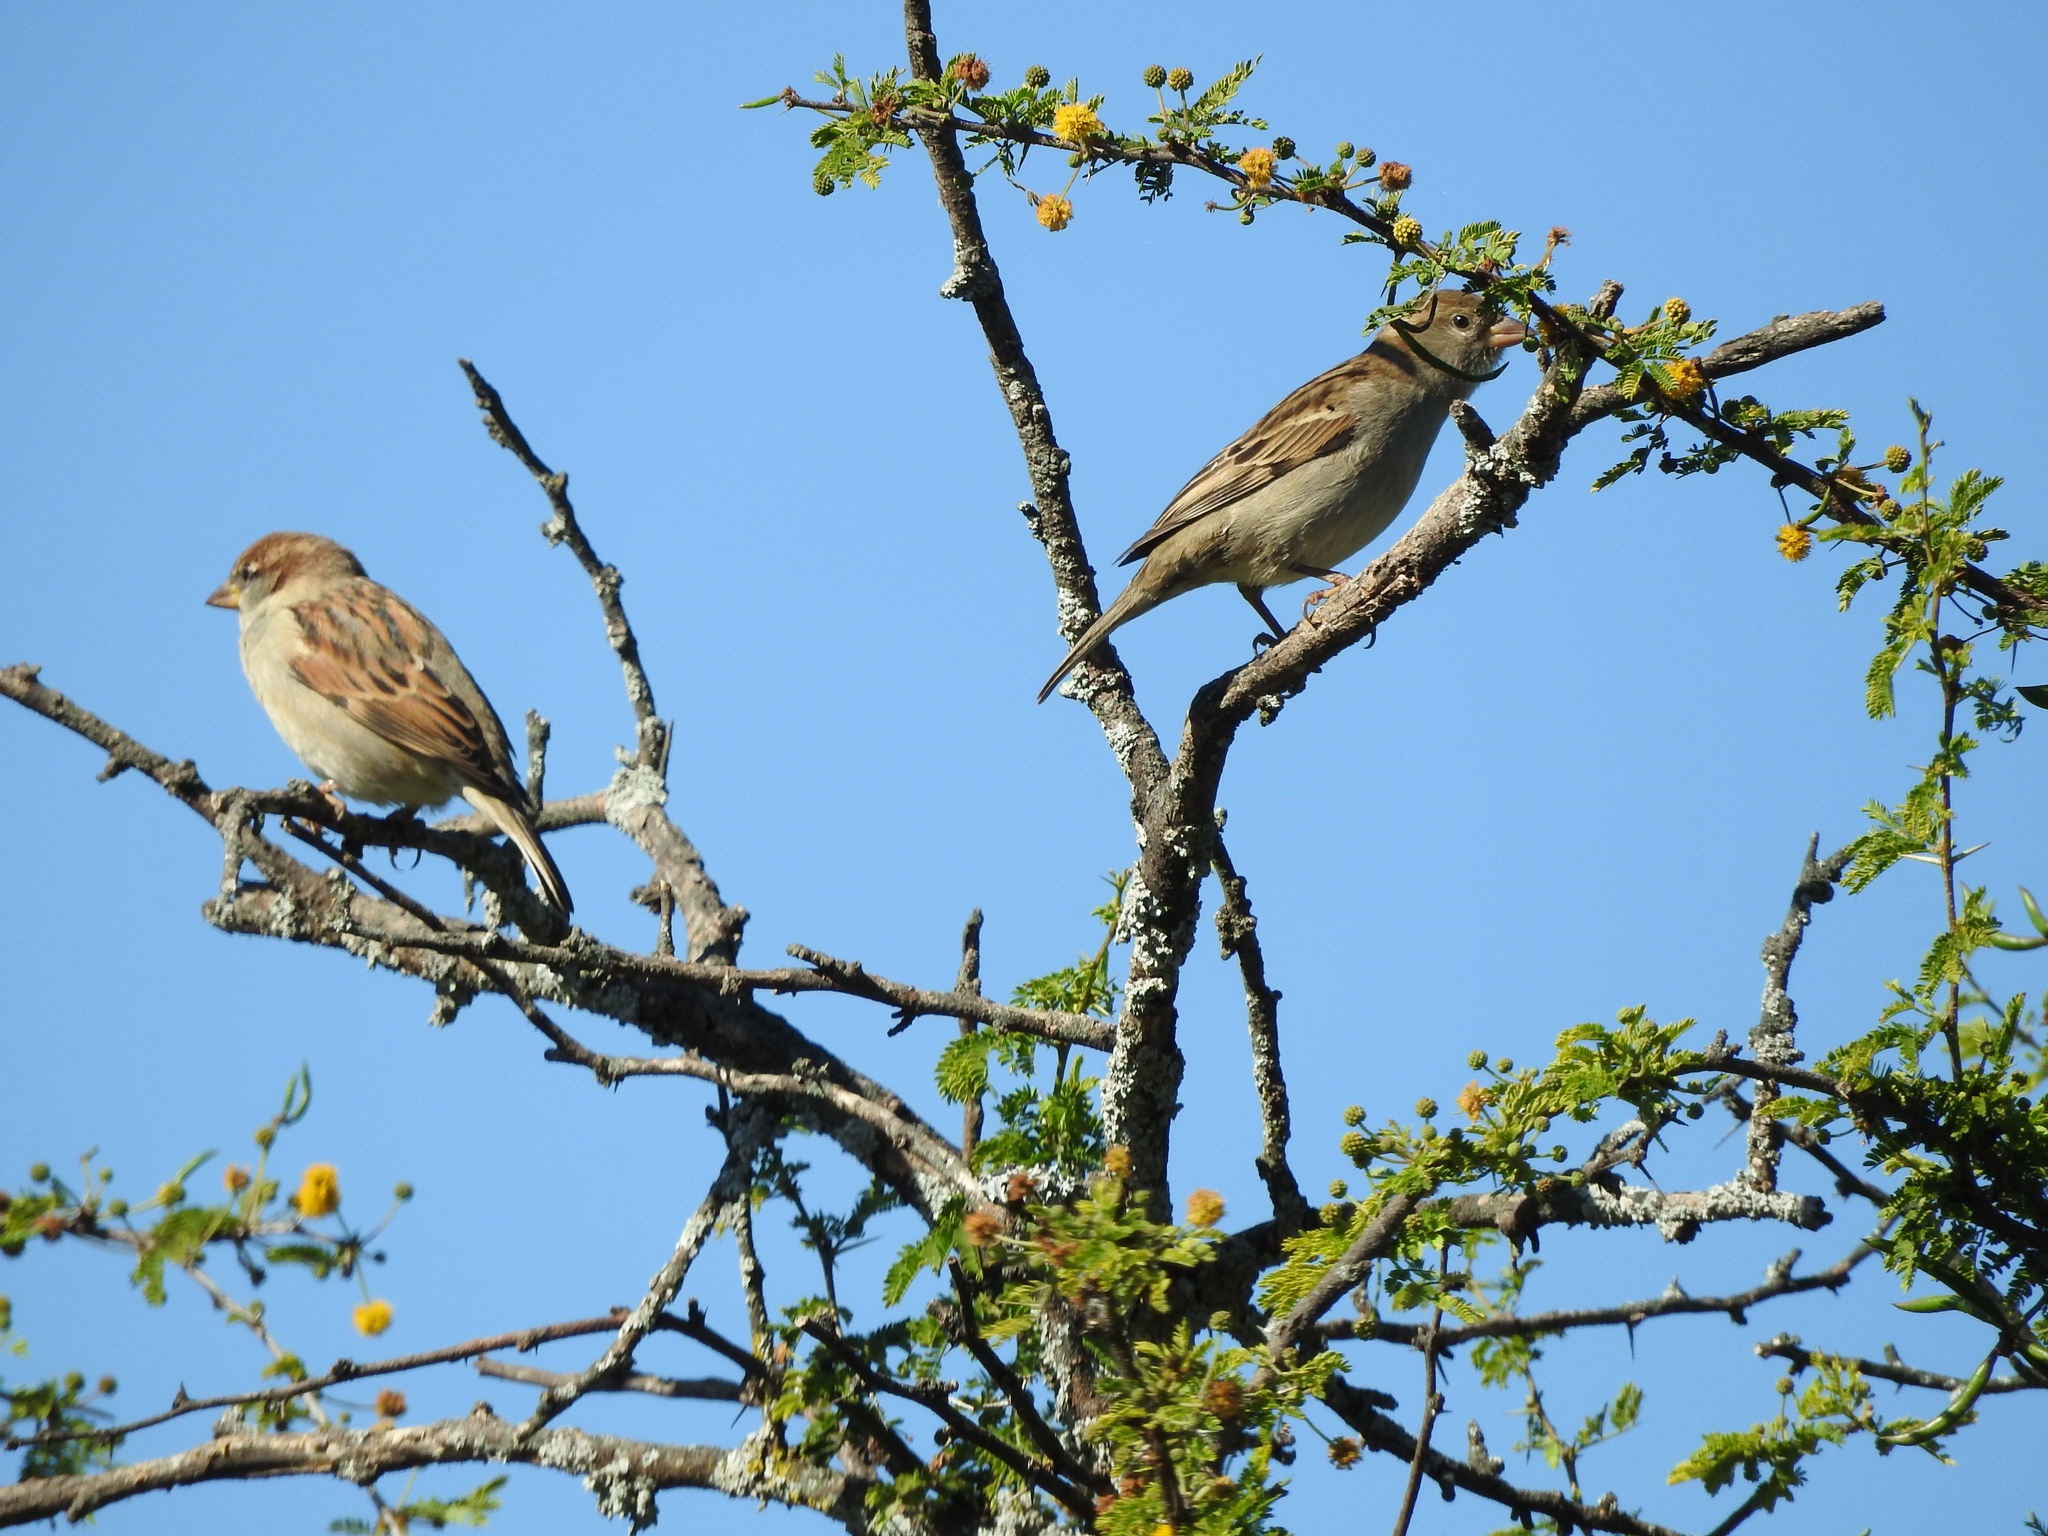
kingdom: Animalia
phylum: Chordata
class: Aves
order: Passeriformes
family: Passeridae
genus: Passer
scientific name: Passer domesticus
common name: House sparrow
